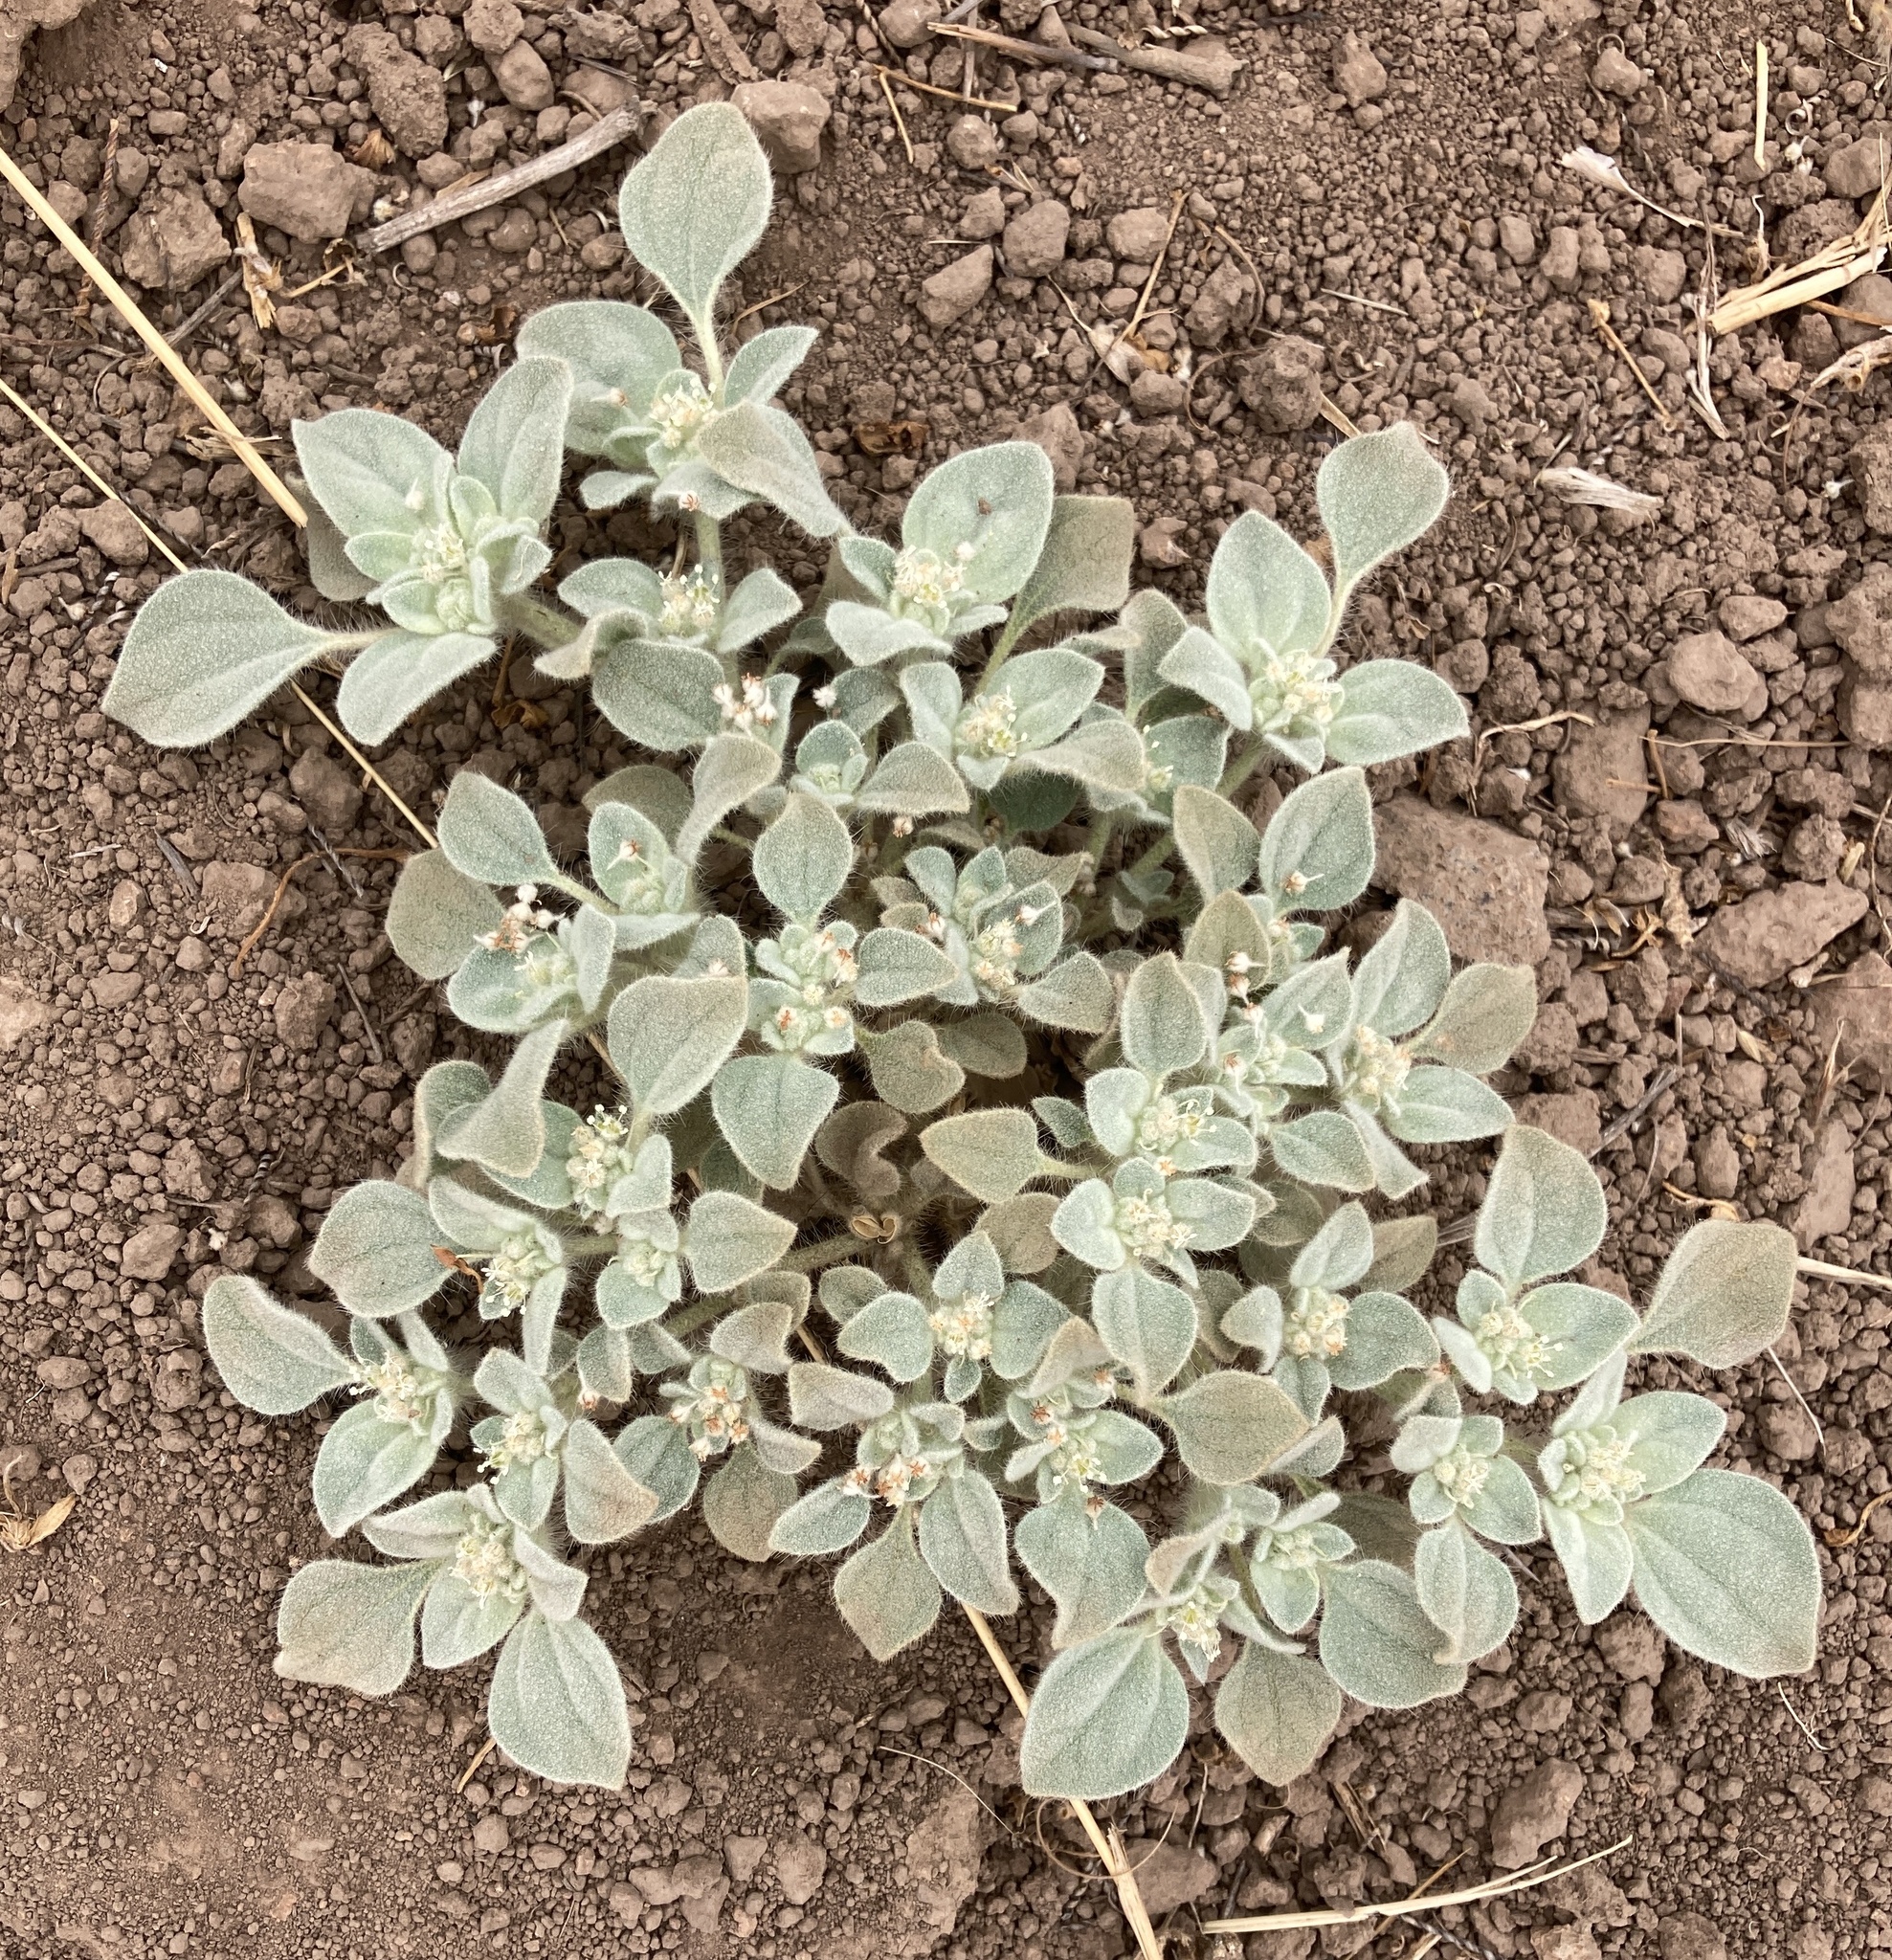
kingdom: Plantae
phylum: Tracheophyta
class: Magnoliopsida
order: Malpighiales
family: Euphorbiaceae
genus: Croton
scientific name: Croton setiger
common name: Dove weed
